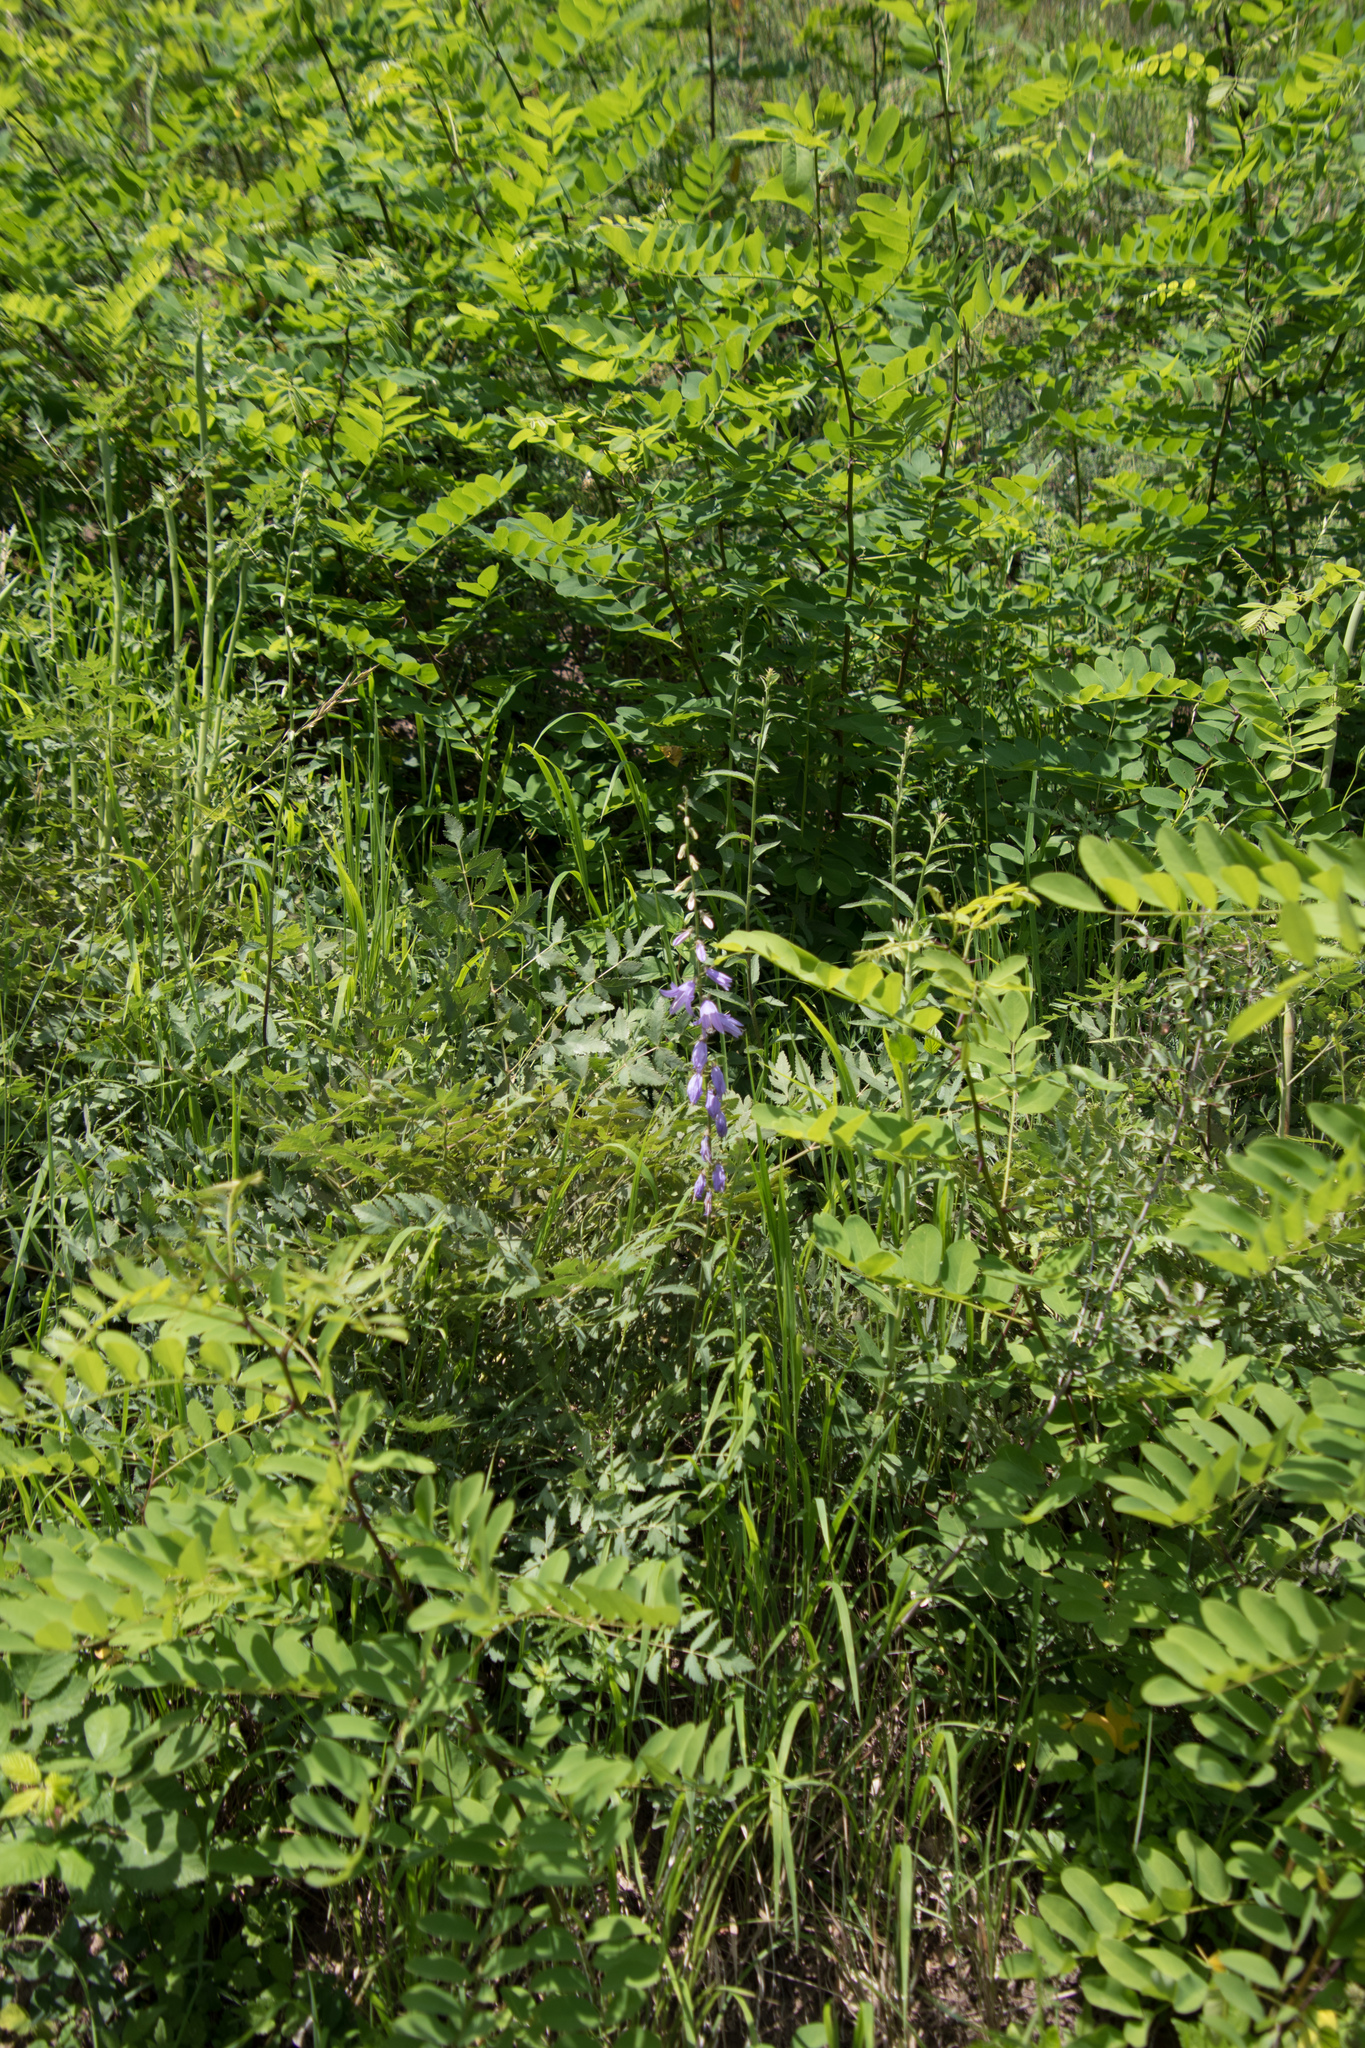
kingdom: Plantae
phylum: Tracheophyta
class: Magnoliopsida
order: Asterales
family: Campanulaceae
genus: Campanula
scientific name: Campanula rapunculoides
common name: Creeping bellflower
